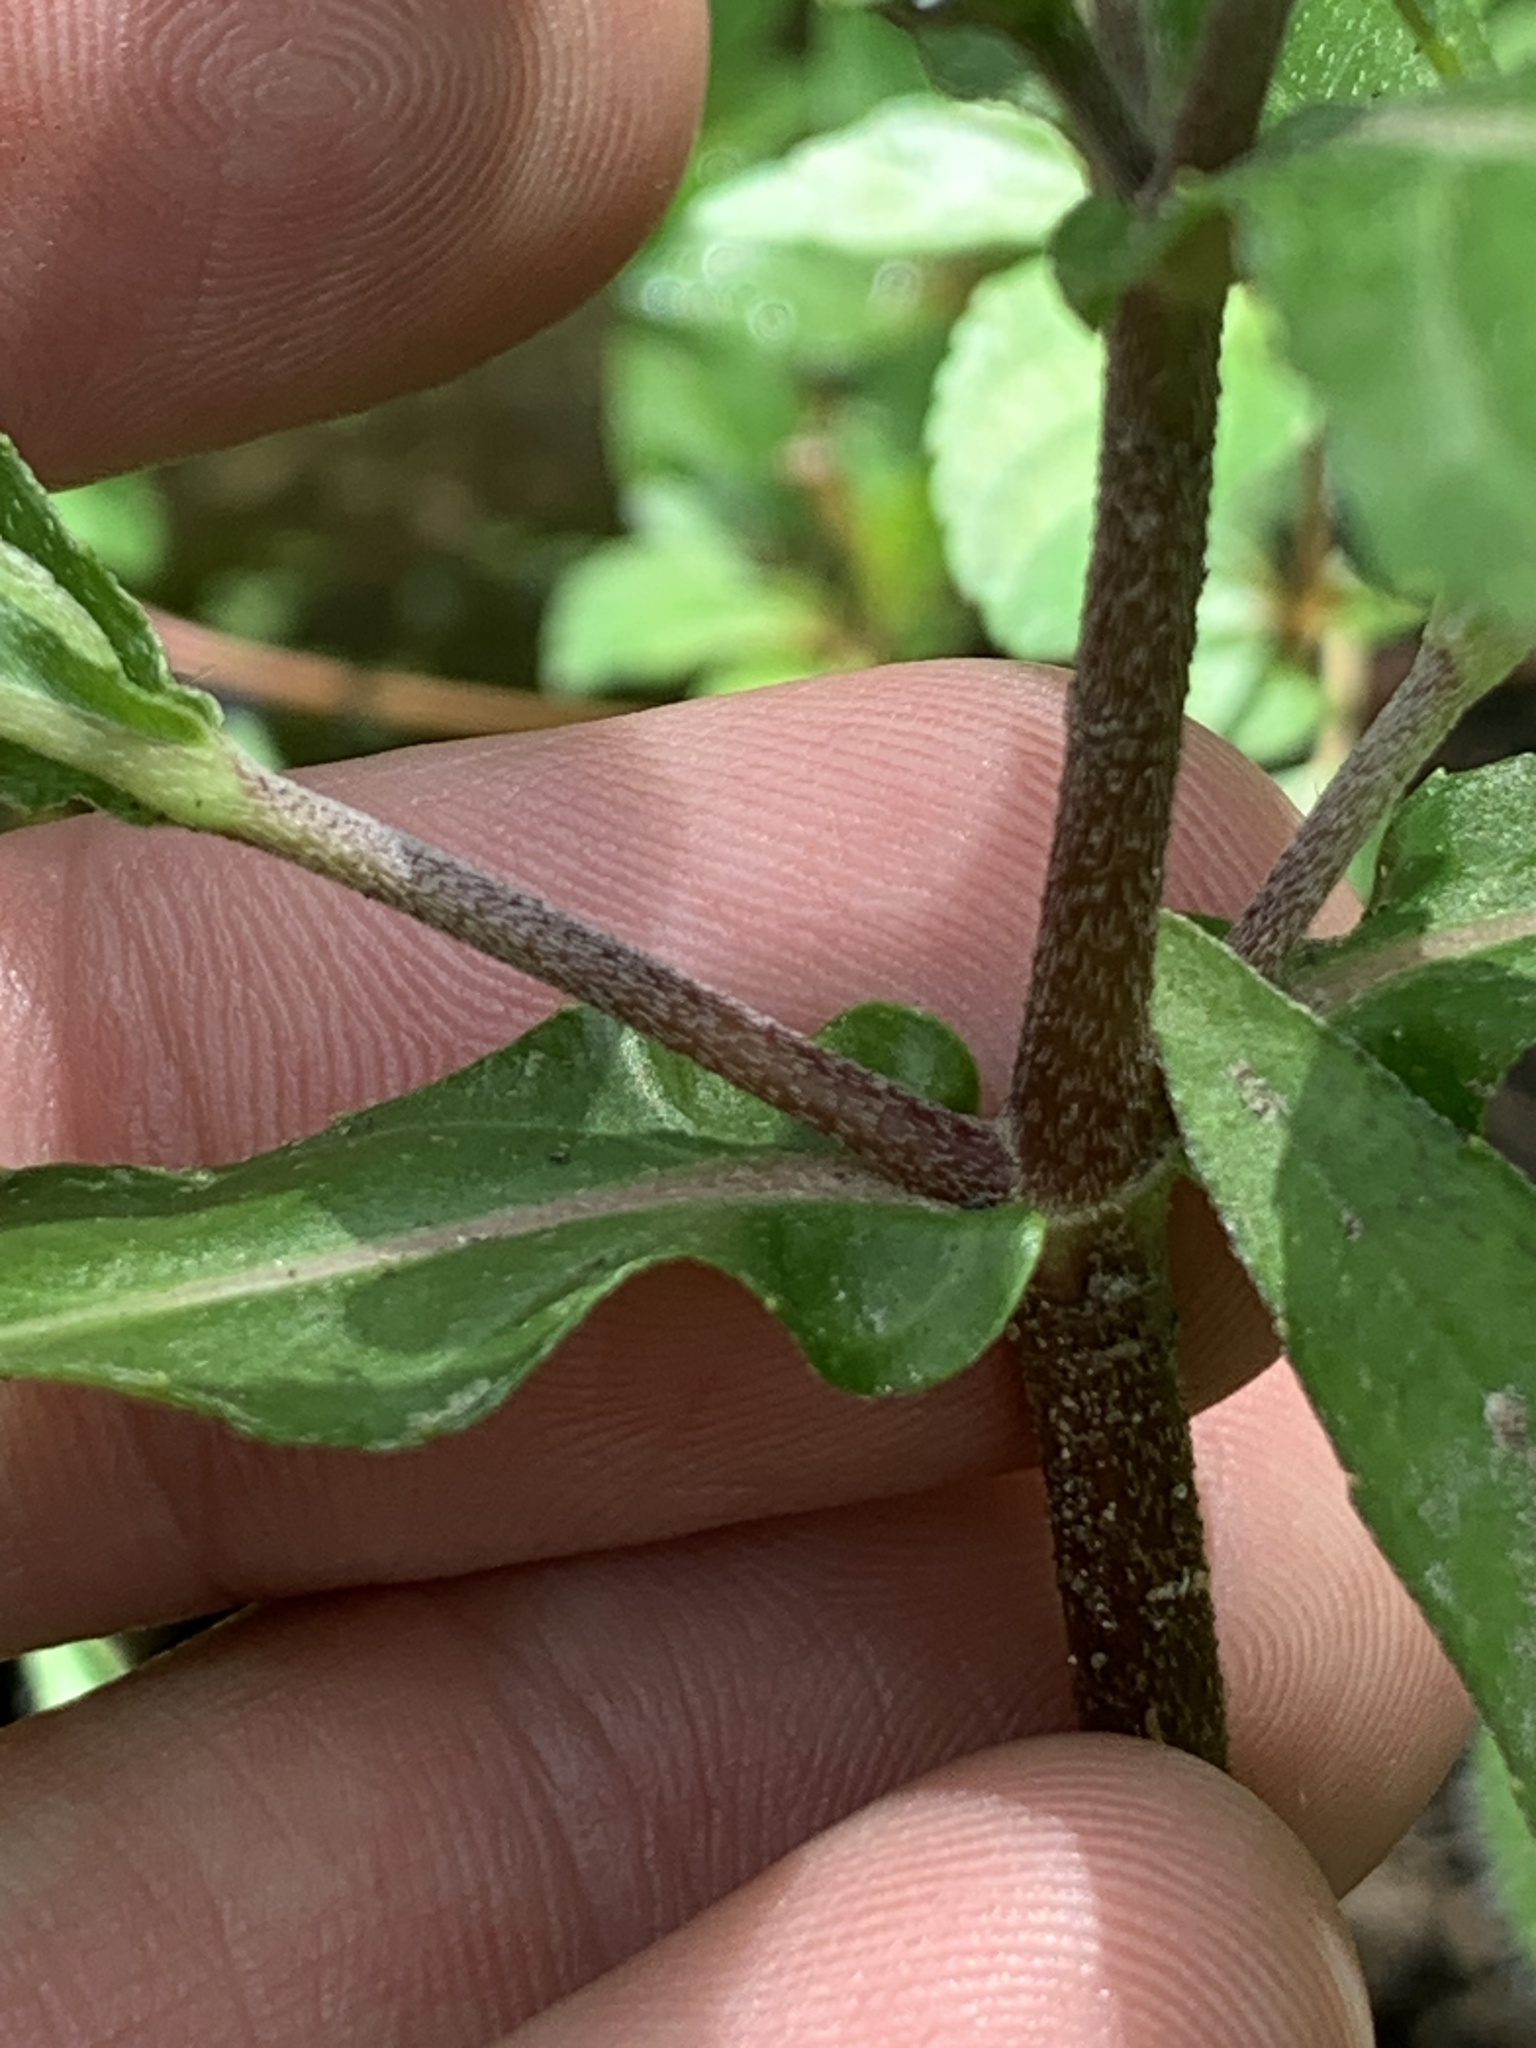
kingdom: Plantae
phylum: Tracheophyta
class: Magnoliopsida
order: Asterales
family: Asteraceae
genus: Eclipta
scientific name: Eclipta prostrata
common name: False daisy
